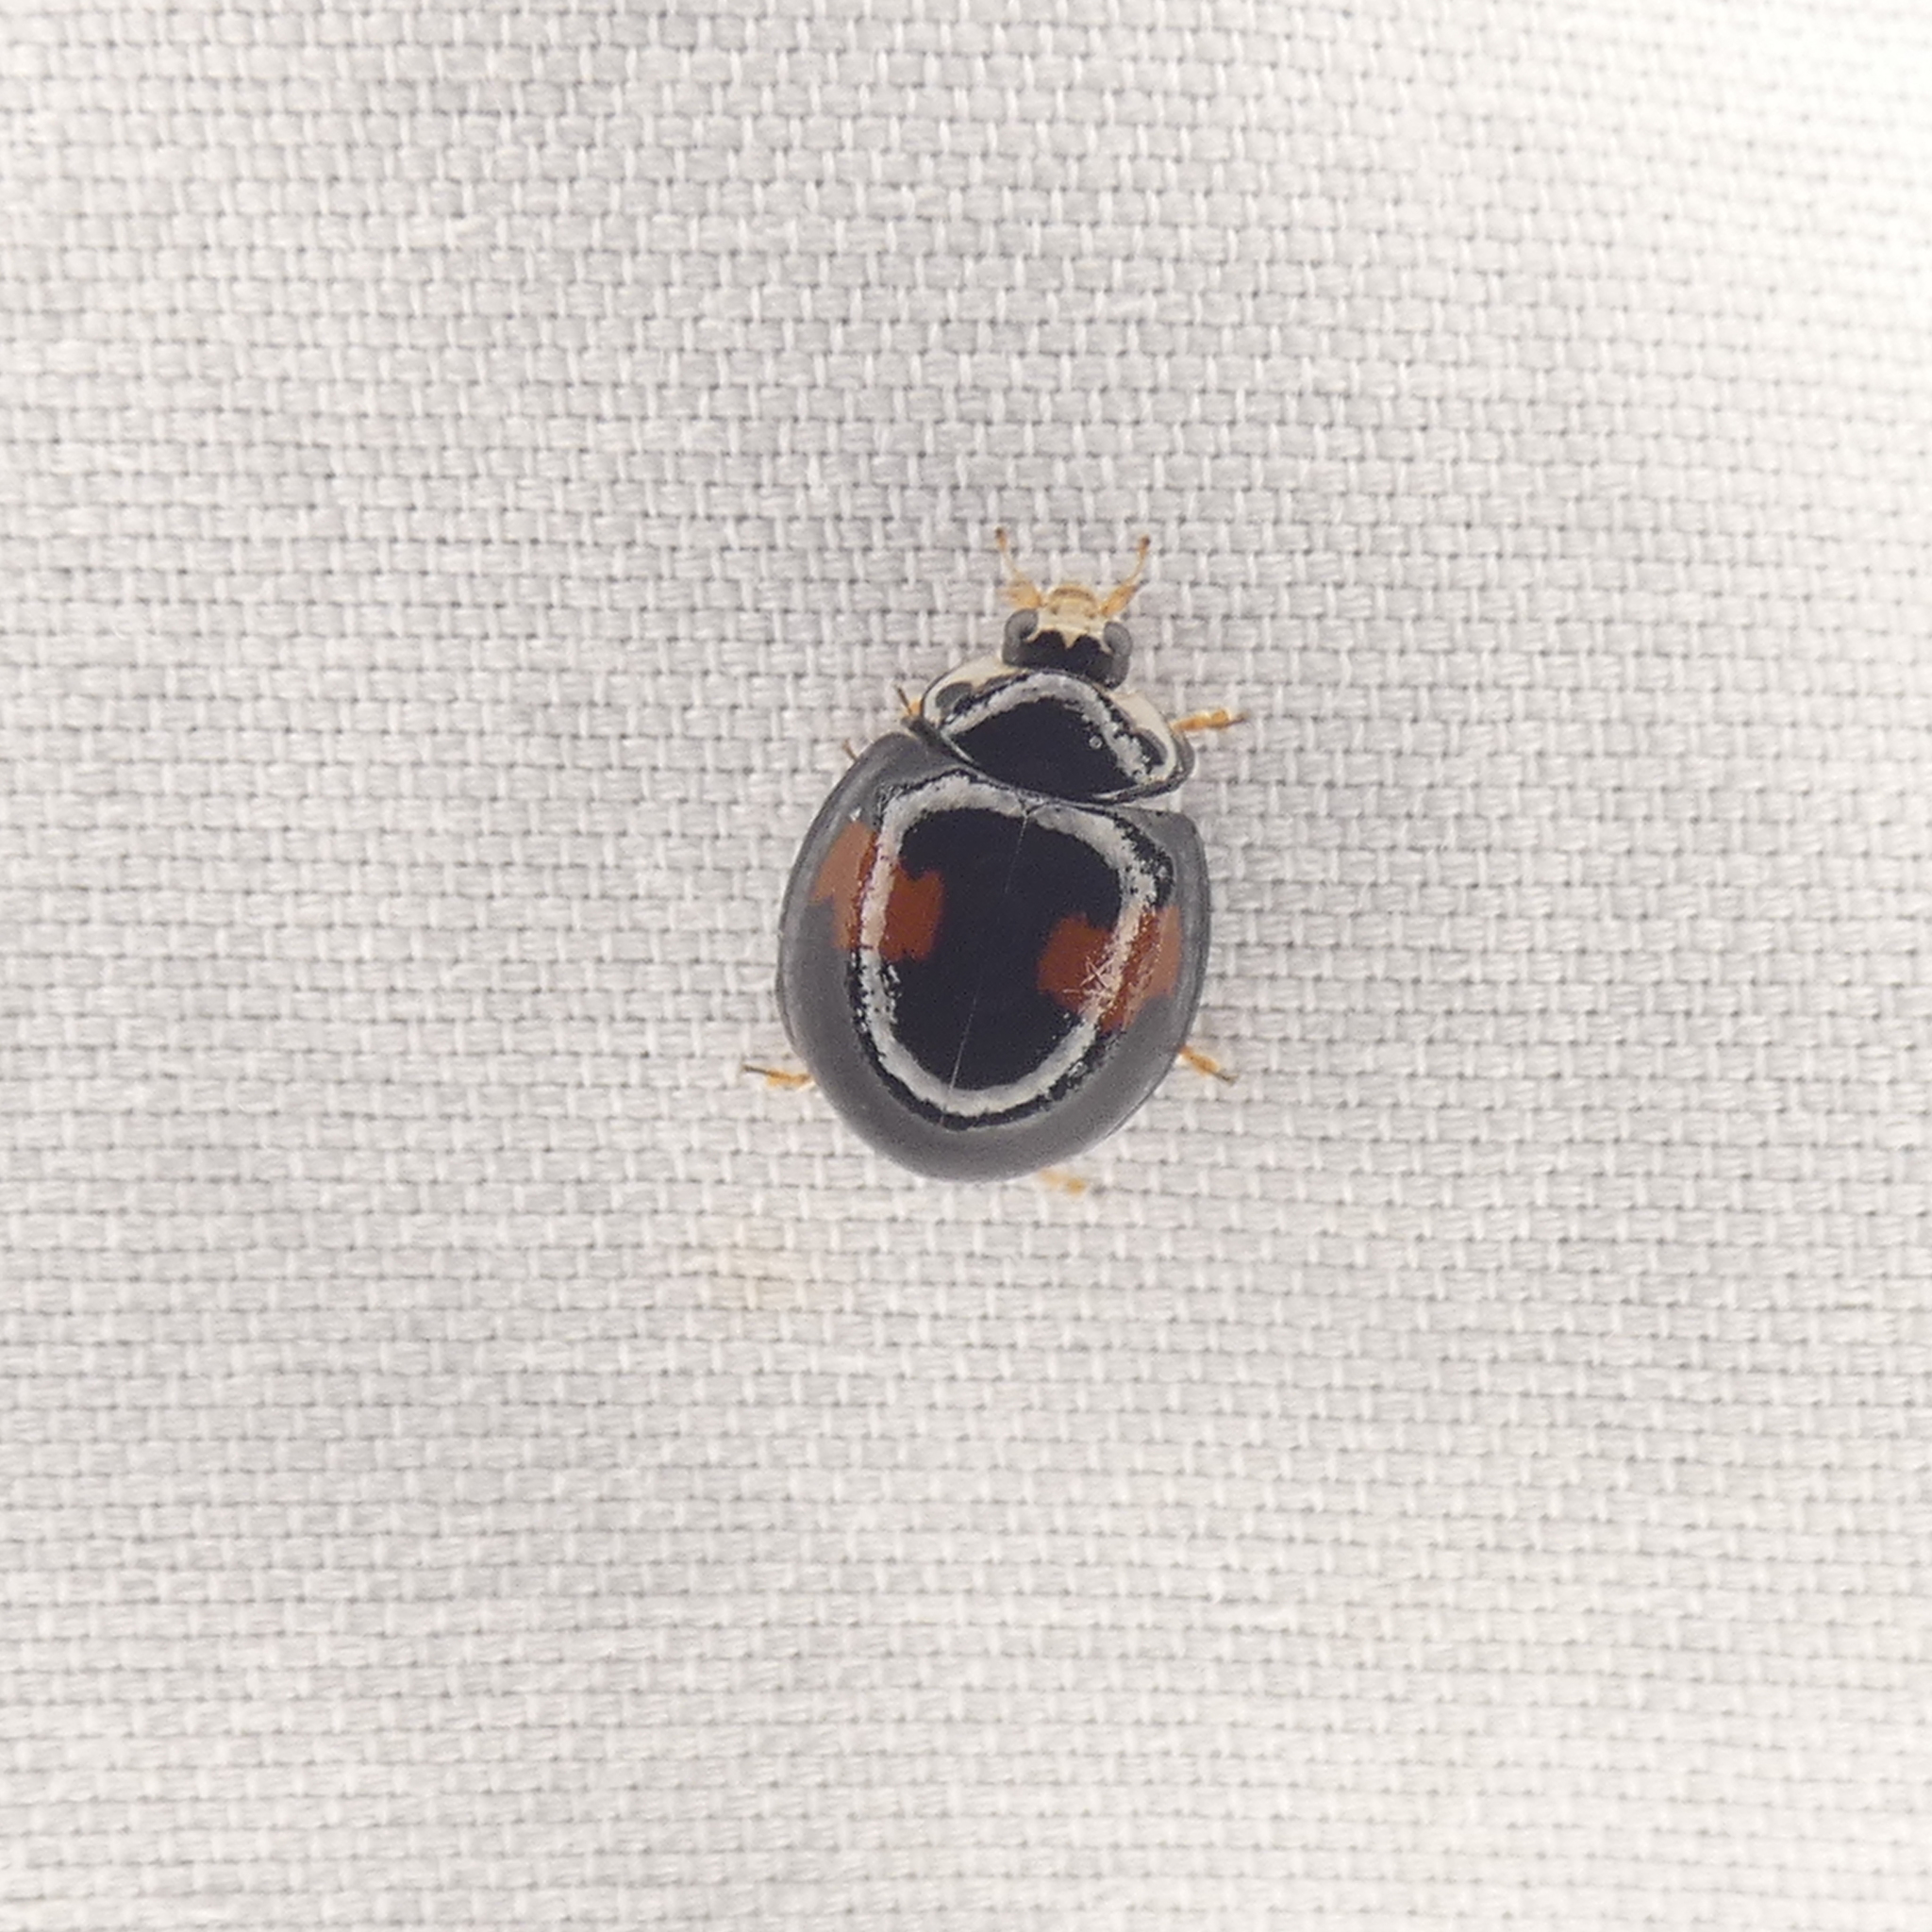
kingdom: Animalia
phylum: Arthropoda
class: Insecta
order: Coleoptera
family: Coccinellidae
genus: Olla
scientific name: Olla v-nigrum
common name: Ashy gray lady beetle
